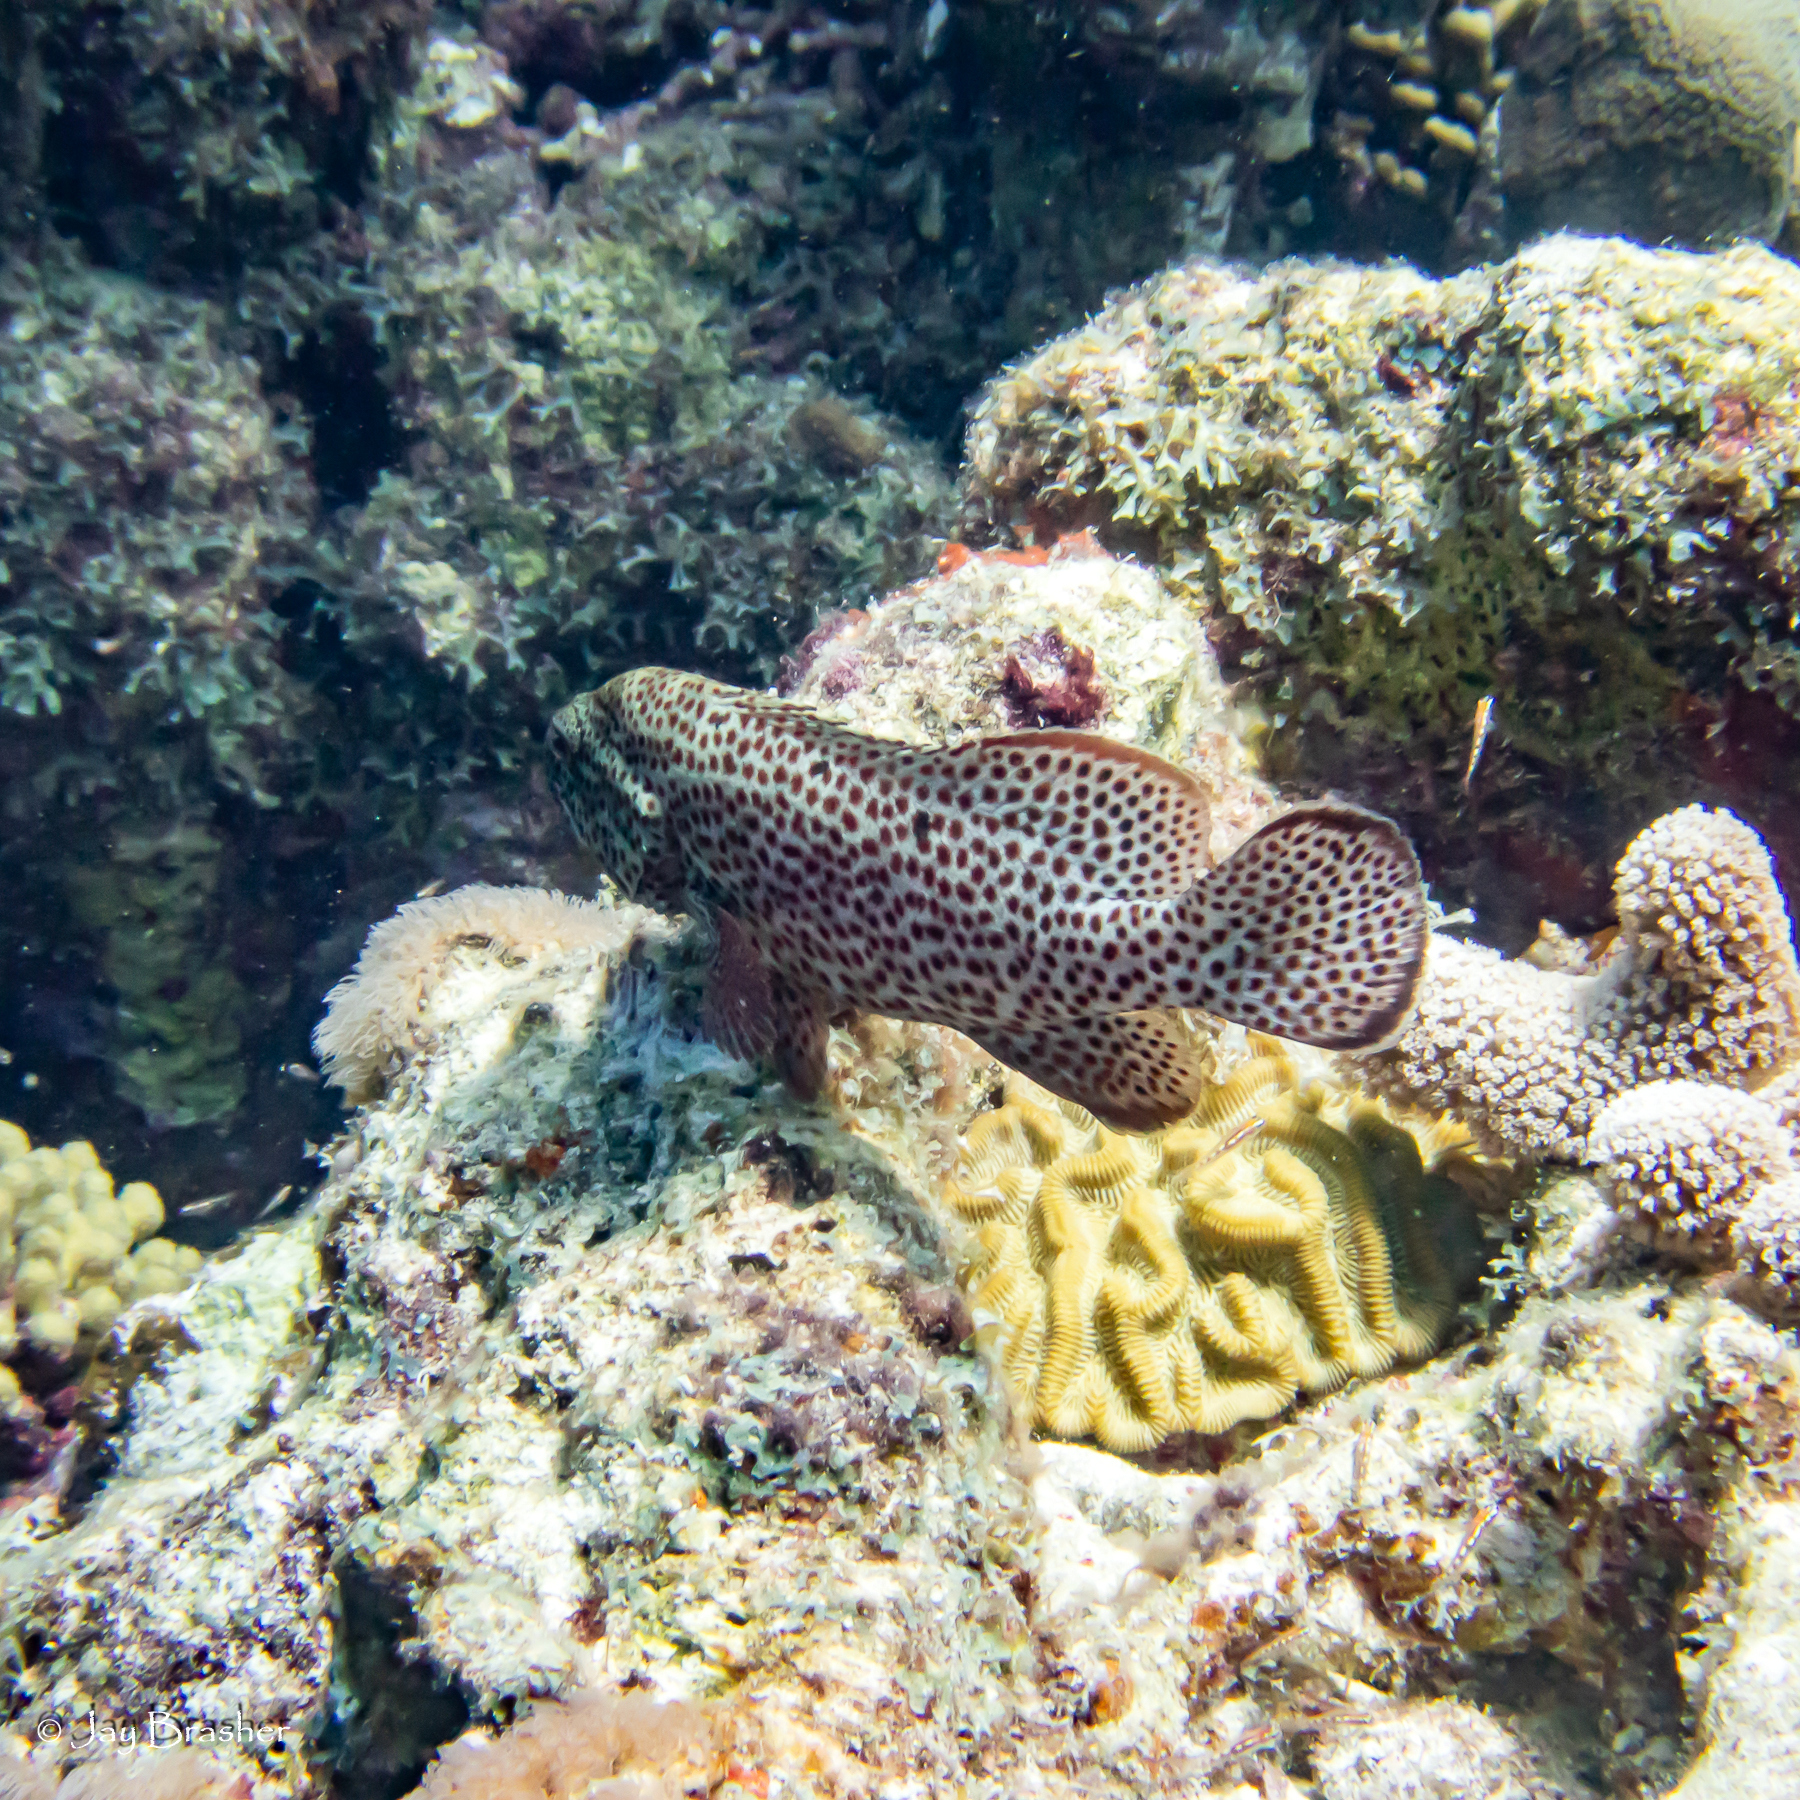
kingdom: Animalia
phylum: Chordata
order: Perciformes
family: Serranidae
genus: Cephalopholis
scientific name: Cephalopholis cruentata
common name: Graysby
